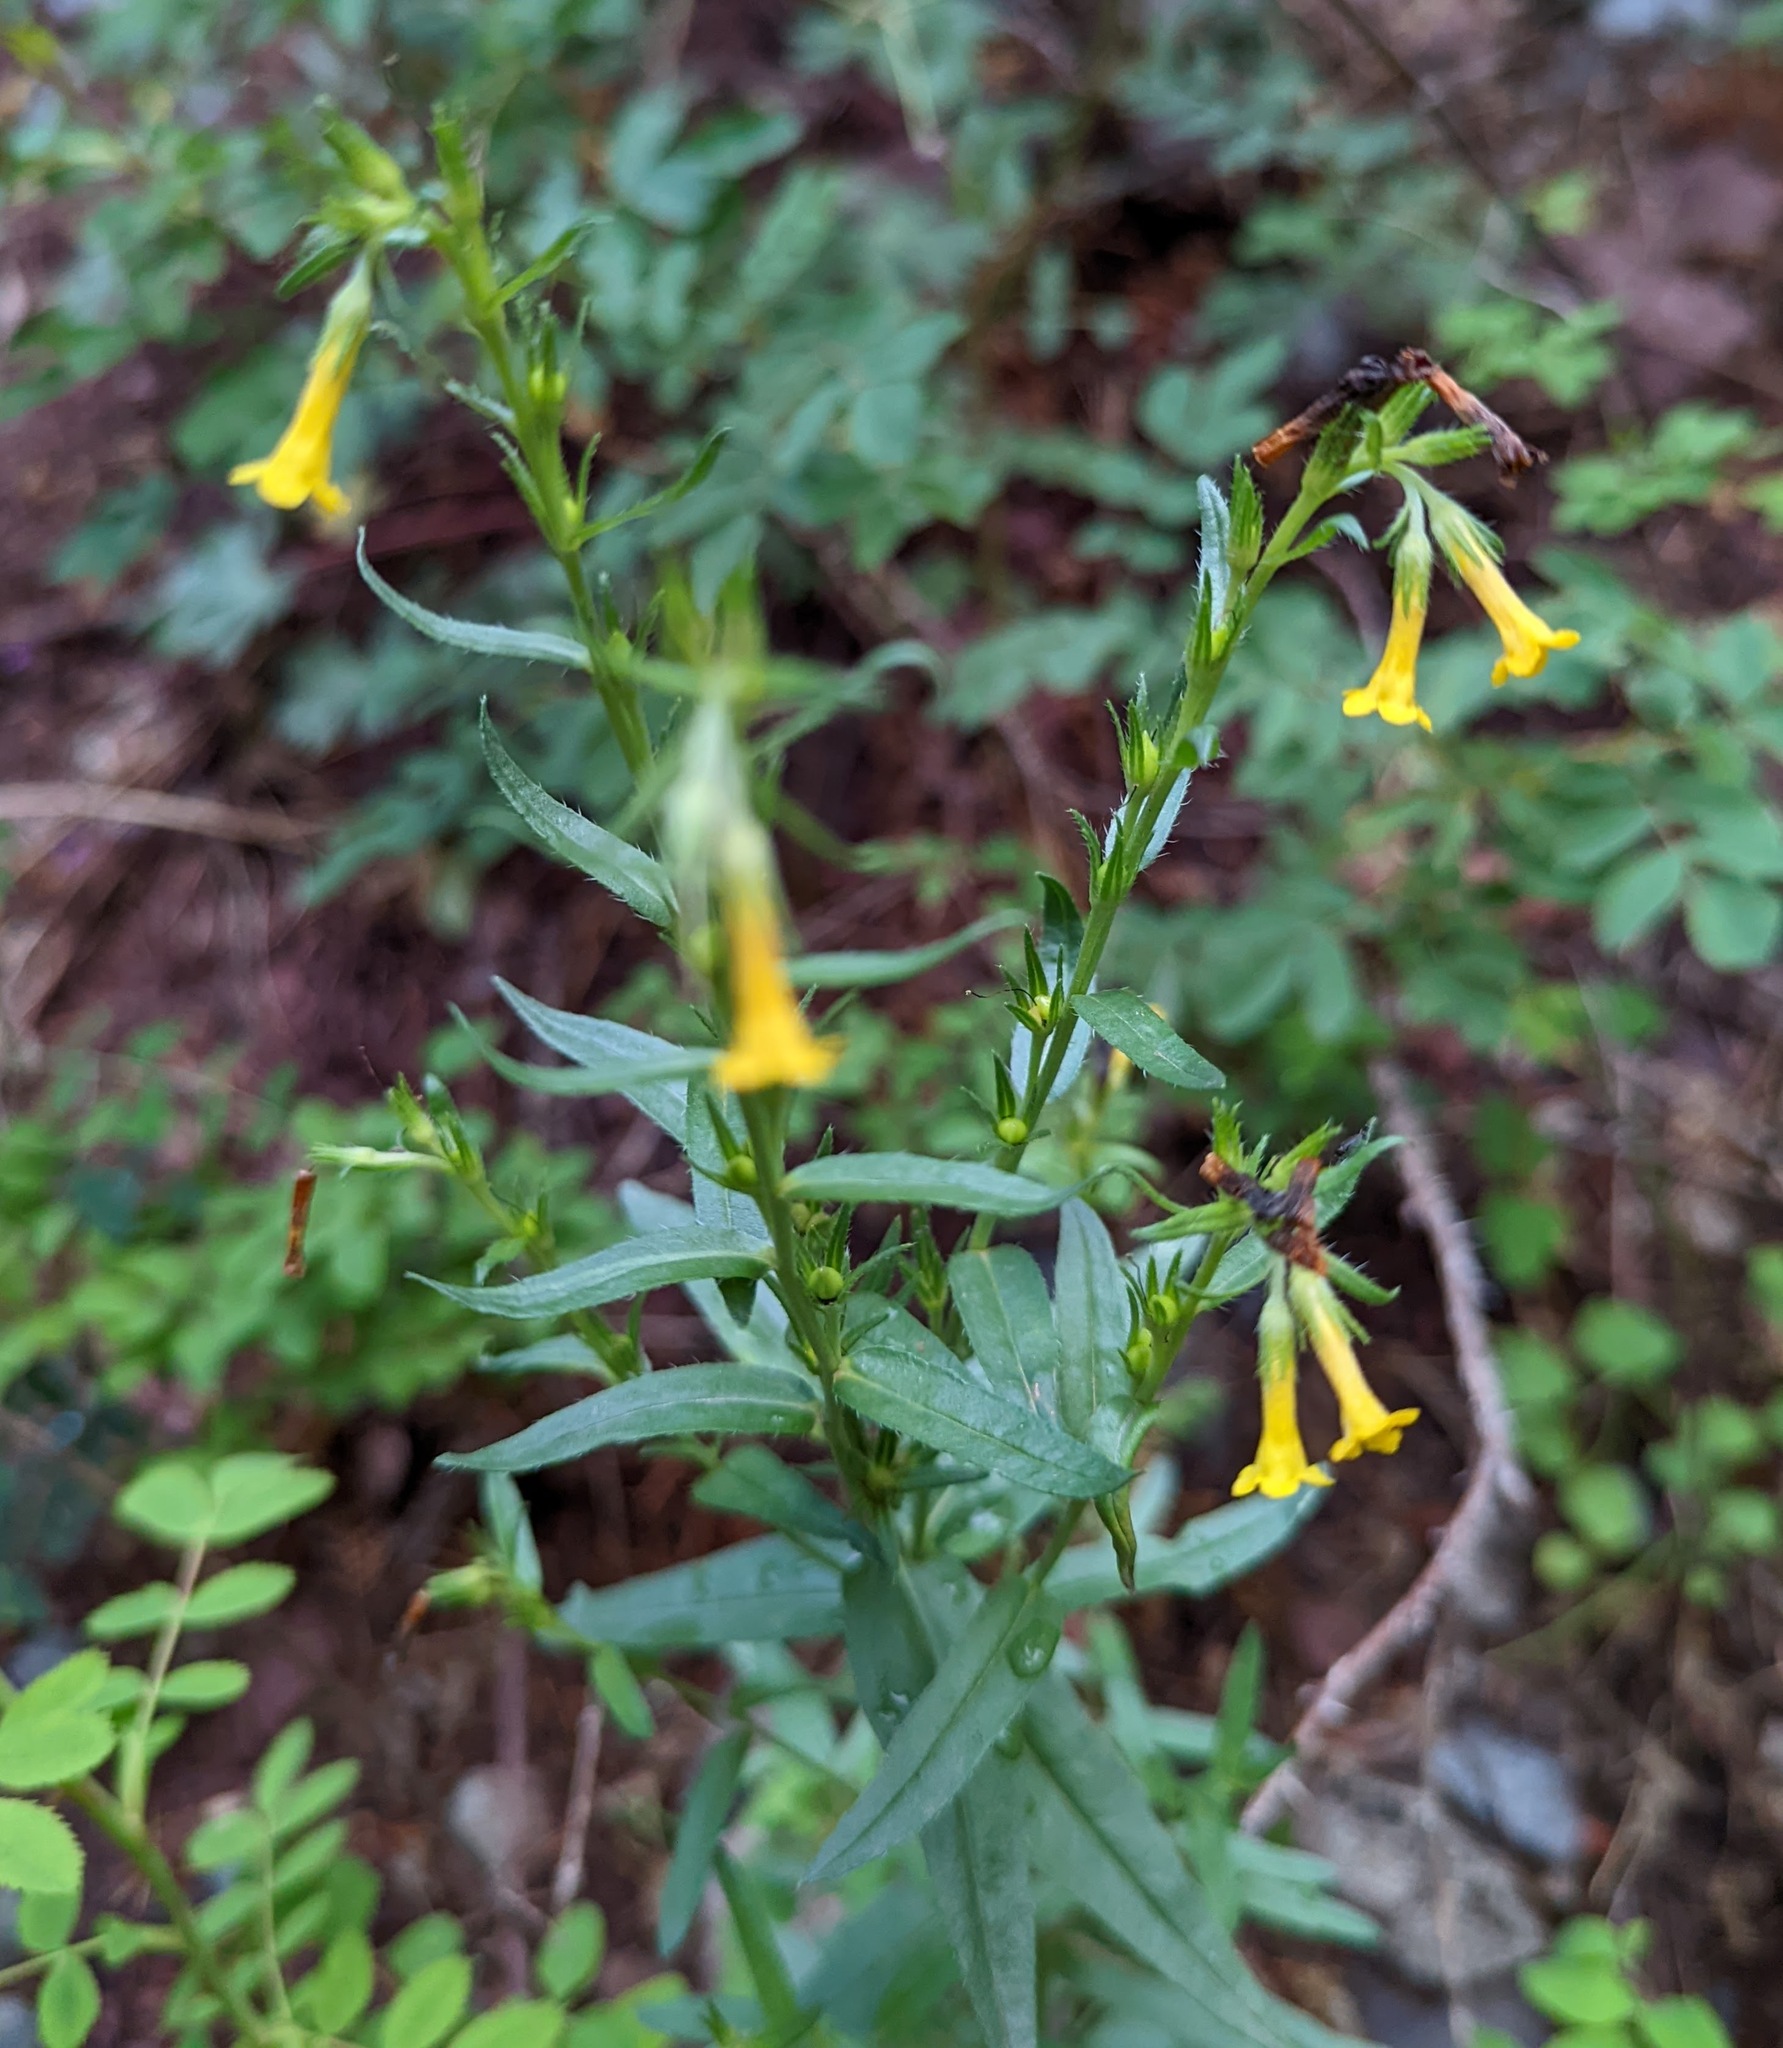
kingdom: Plantae
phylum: Tracheophyta
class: Magnoliopsida
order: Boraginales
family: Boraginaceae
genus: Lithospermum
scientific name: Lithospermum multiflorum
